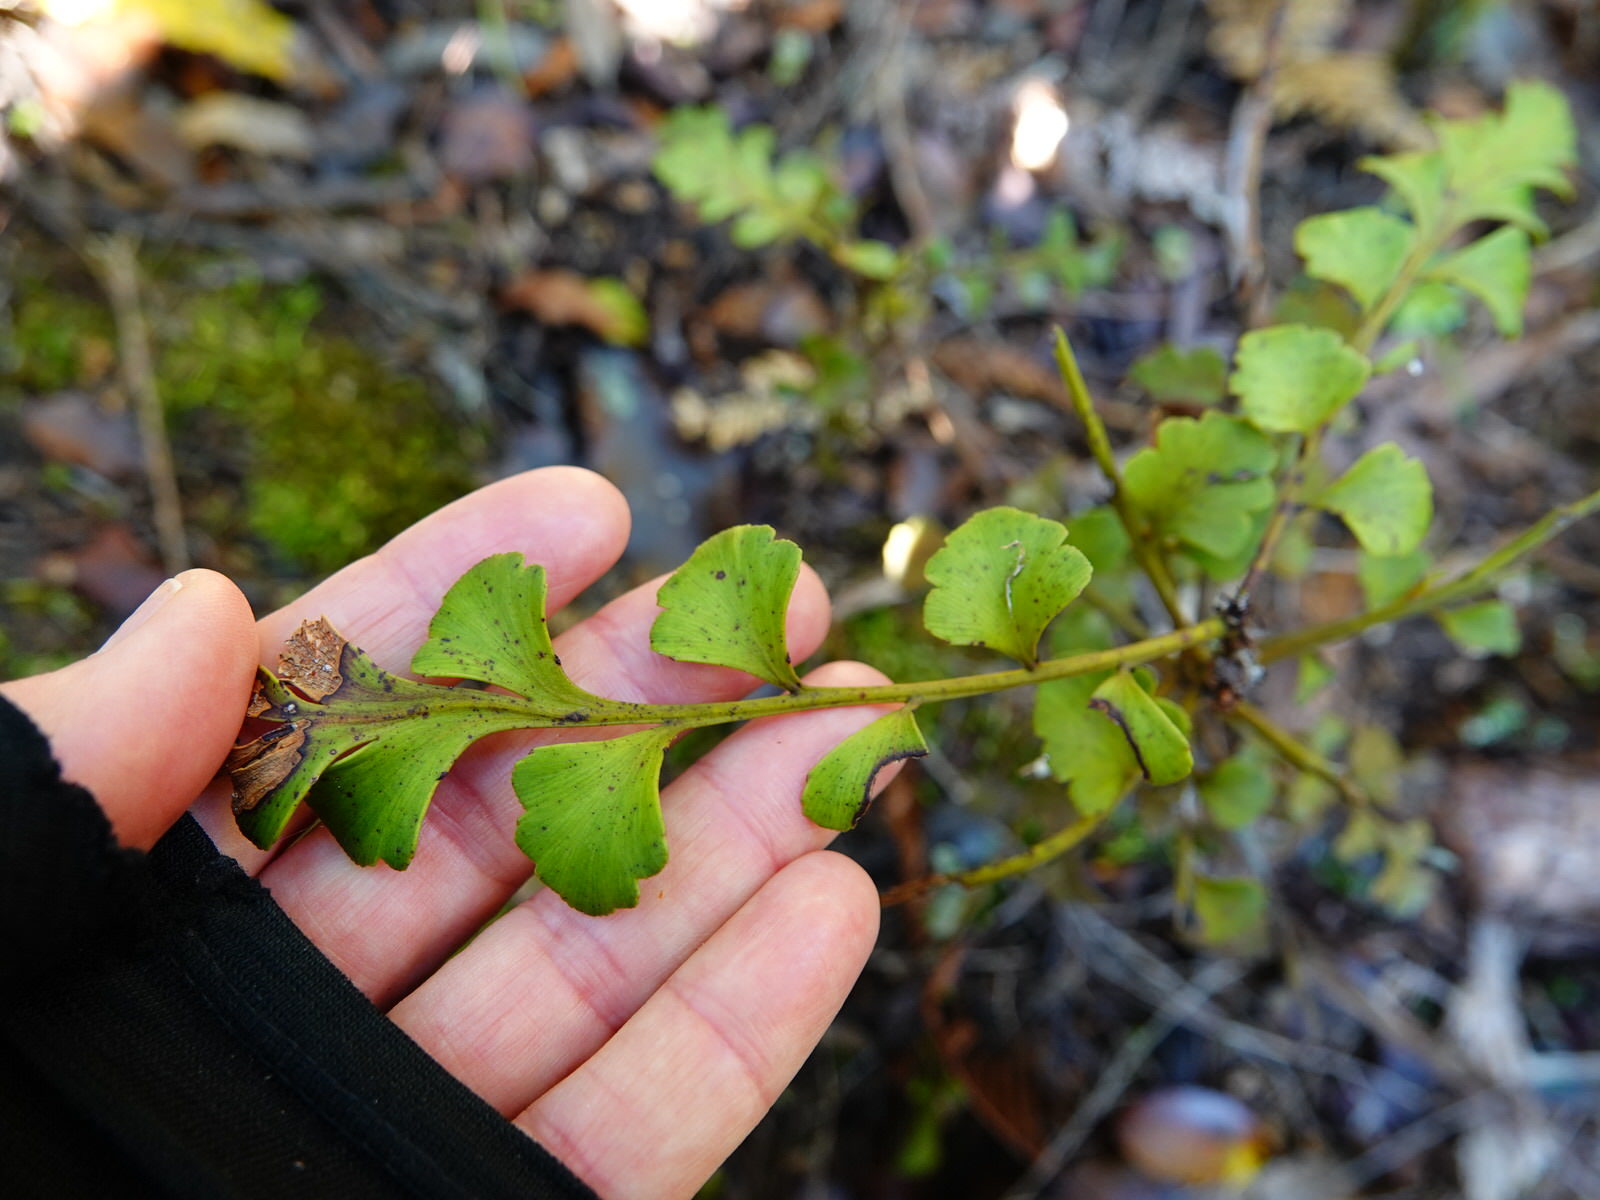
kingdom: Plantae
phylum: Tracheophyta
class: Pinopsida
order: Pinales
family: Phyllocladaceae
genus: Phyllocladus
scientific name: Phyllocladus toatoa
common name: Celery-top pine
